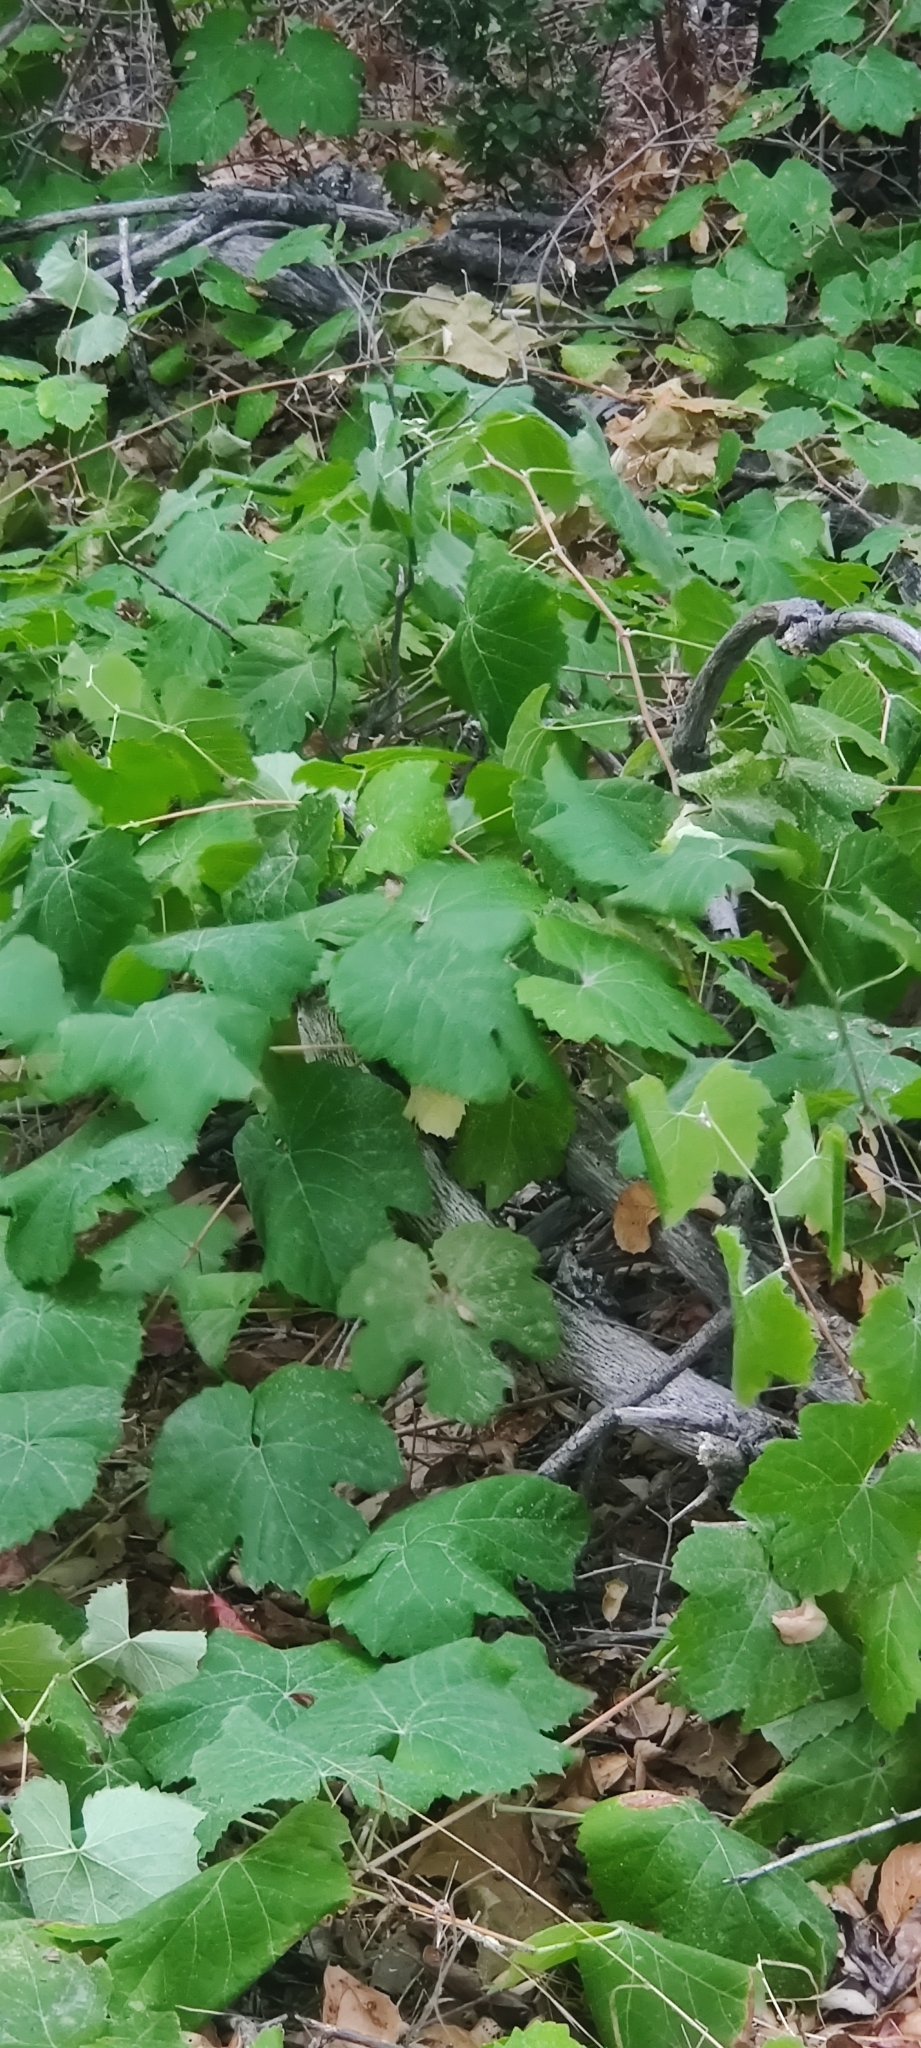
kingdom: Plantae
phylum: Tracheophyta
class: Magnoliopsida
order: Vitales
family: Vitaceae
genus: Vitis
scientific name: Vitis girdiana
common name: Desert wild grape
